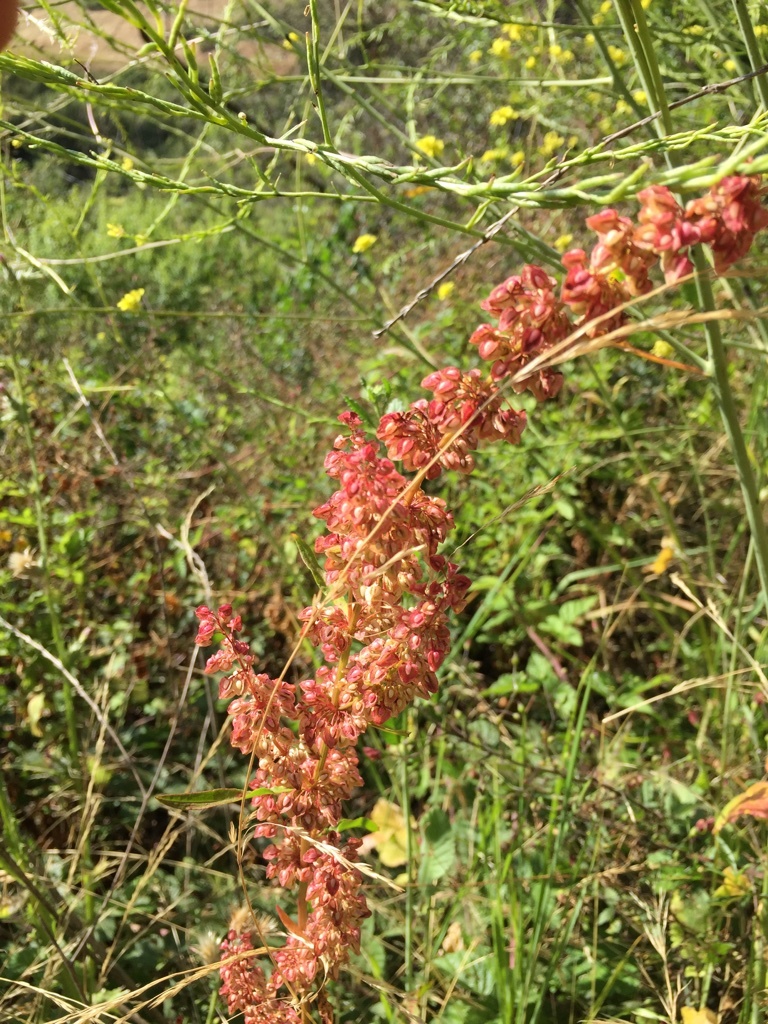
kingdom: Plantae
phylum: Tracheophyta
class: Magnoliopsida
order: Caryophyllales
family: Polygonaceae
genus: Rumex
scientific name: Rumex acetosella
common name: Common sheep sorrel
